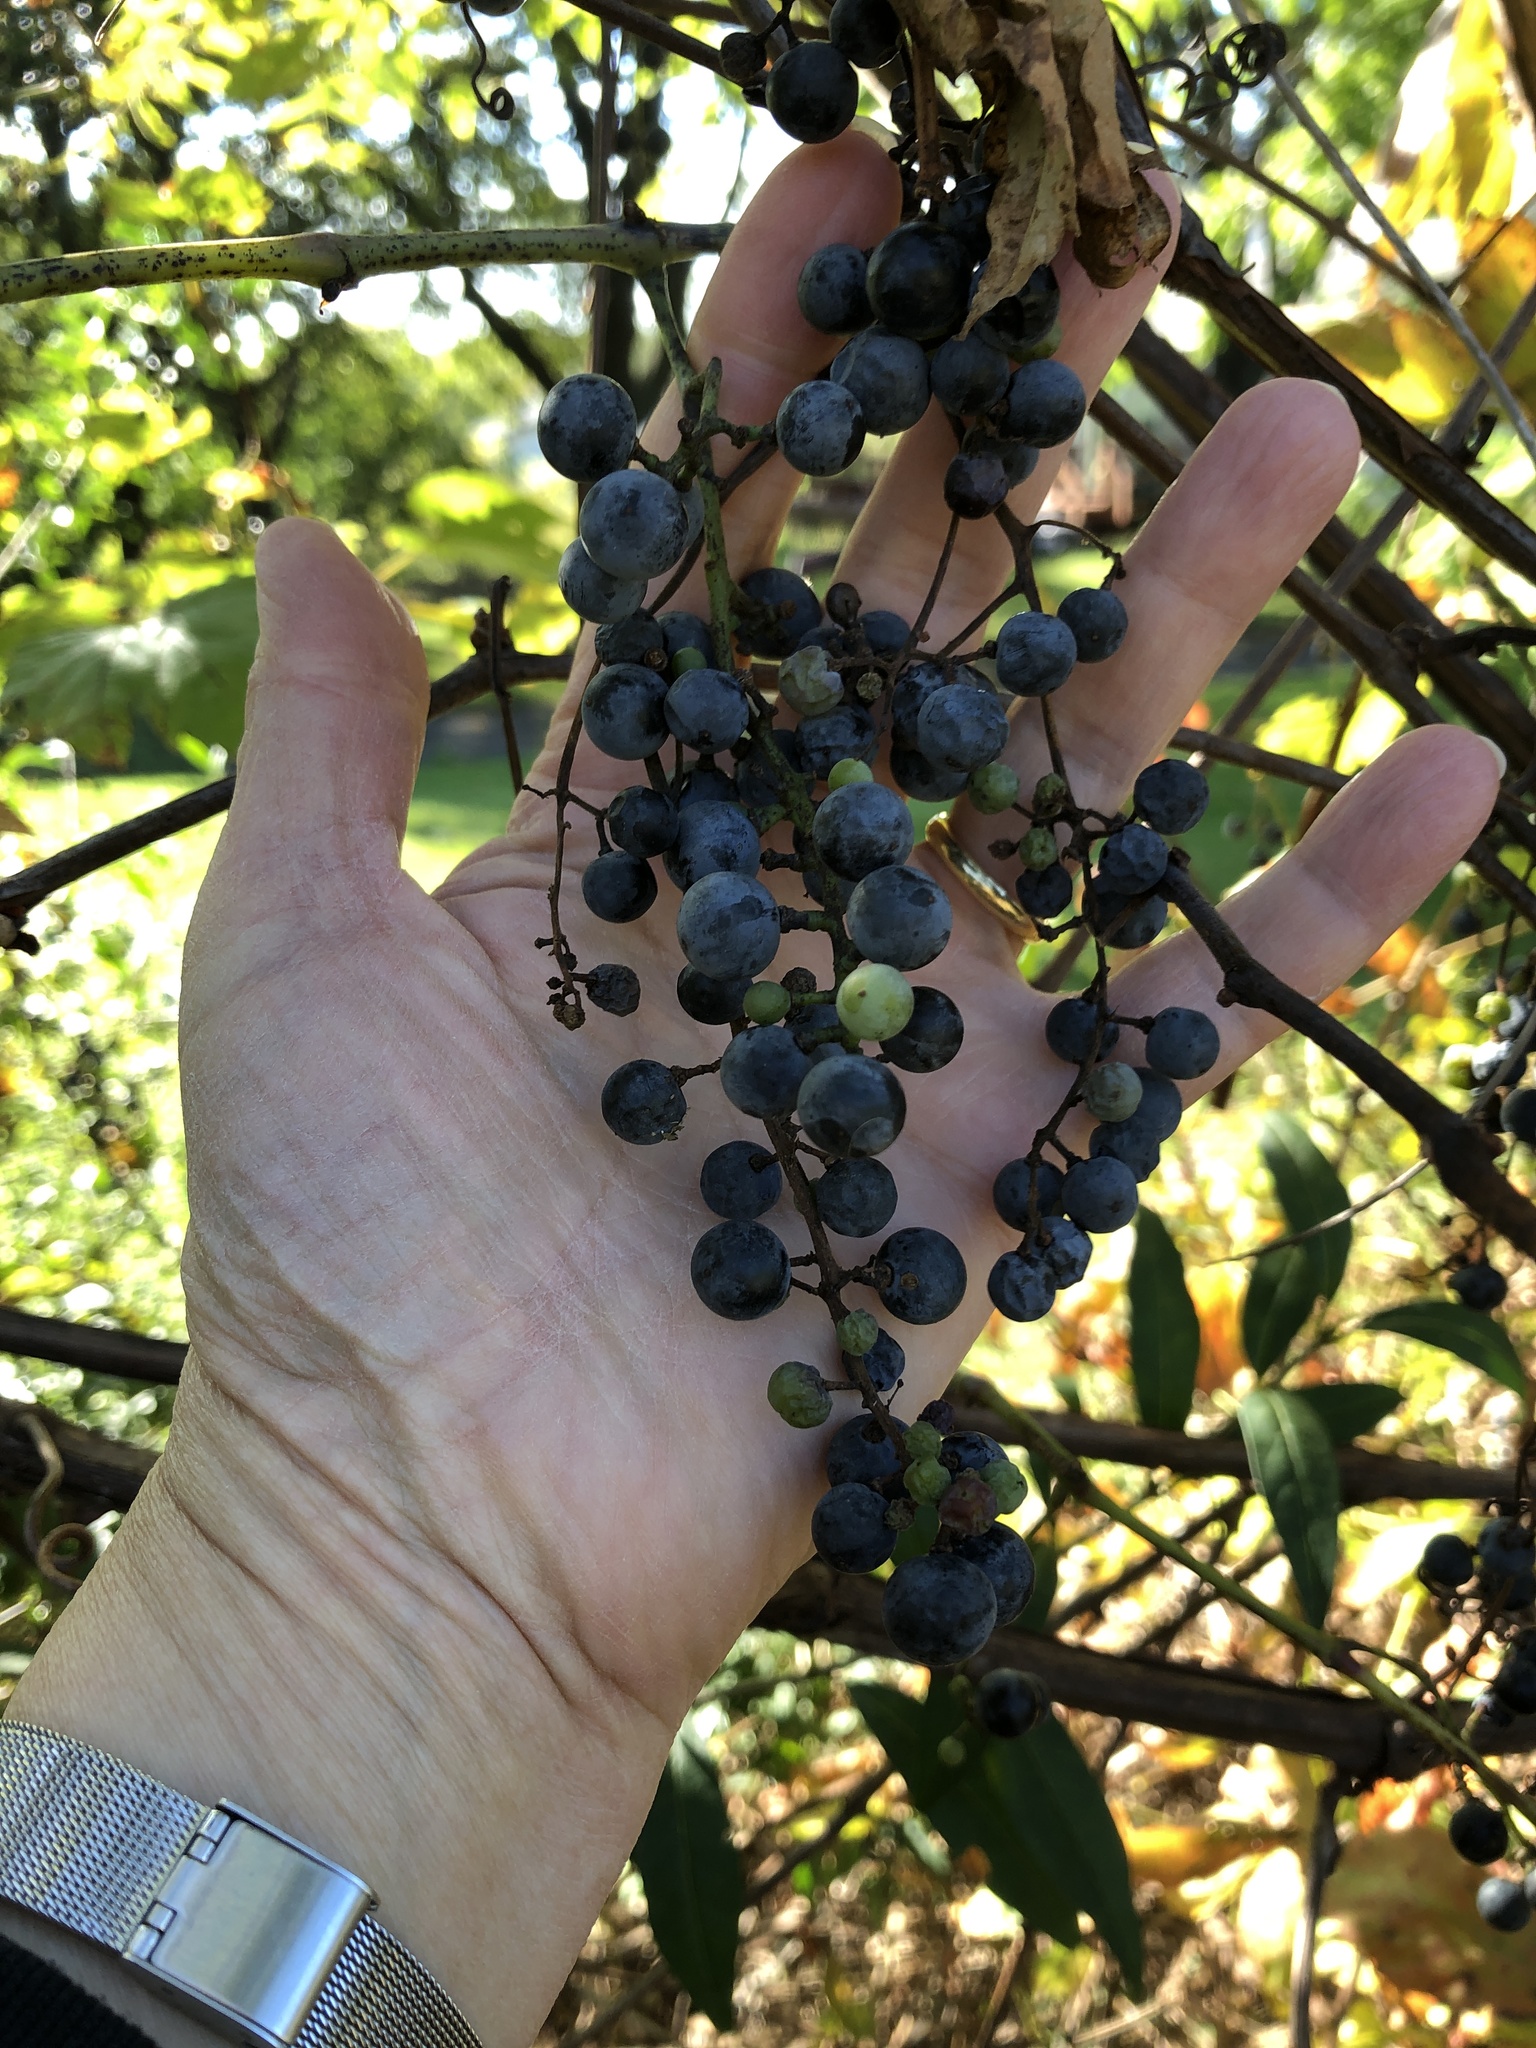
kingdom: Plantae
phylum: Tracheophyta
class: Magnoliopsida
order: Vitales
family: Vitaceae
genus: Vitis
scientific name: Vitis riparia
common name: Frost grape
